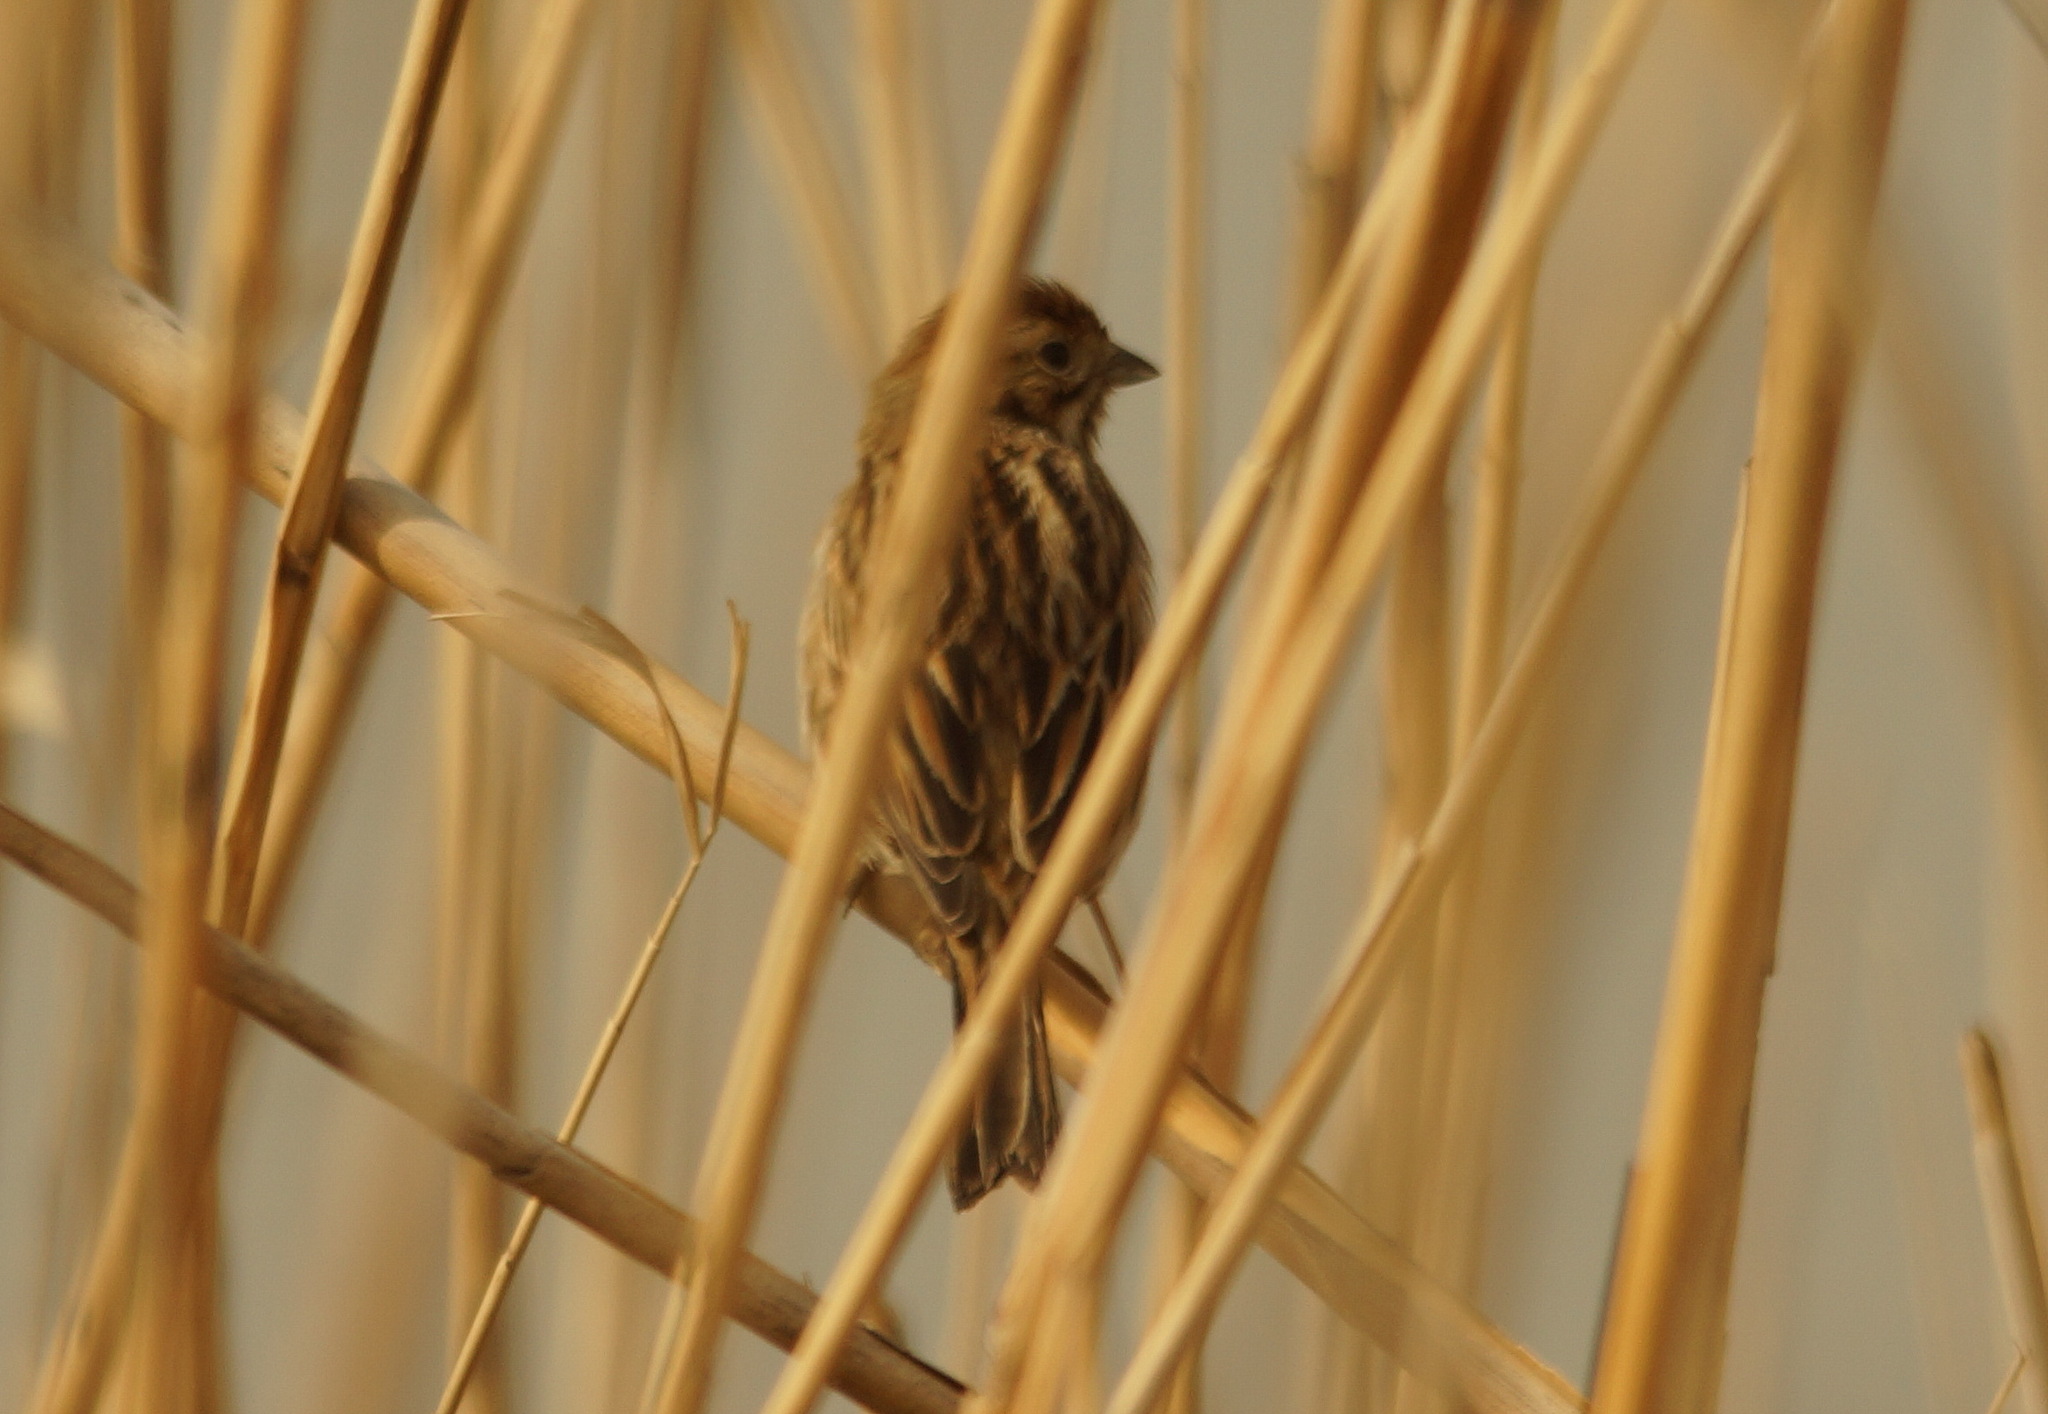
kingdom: Animalia
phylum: Chordata
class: Aves
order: Passeriformes
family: Emberizidae
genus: Emberiza
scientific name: Emberiza schoeniclus
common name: Reed bunting
